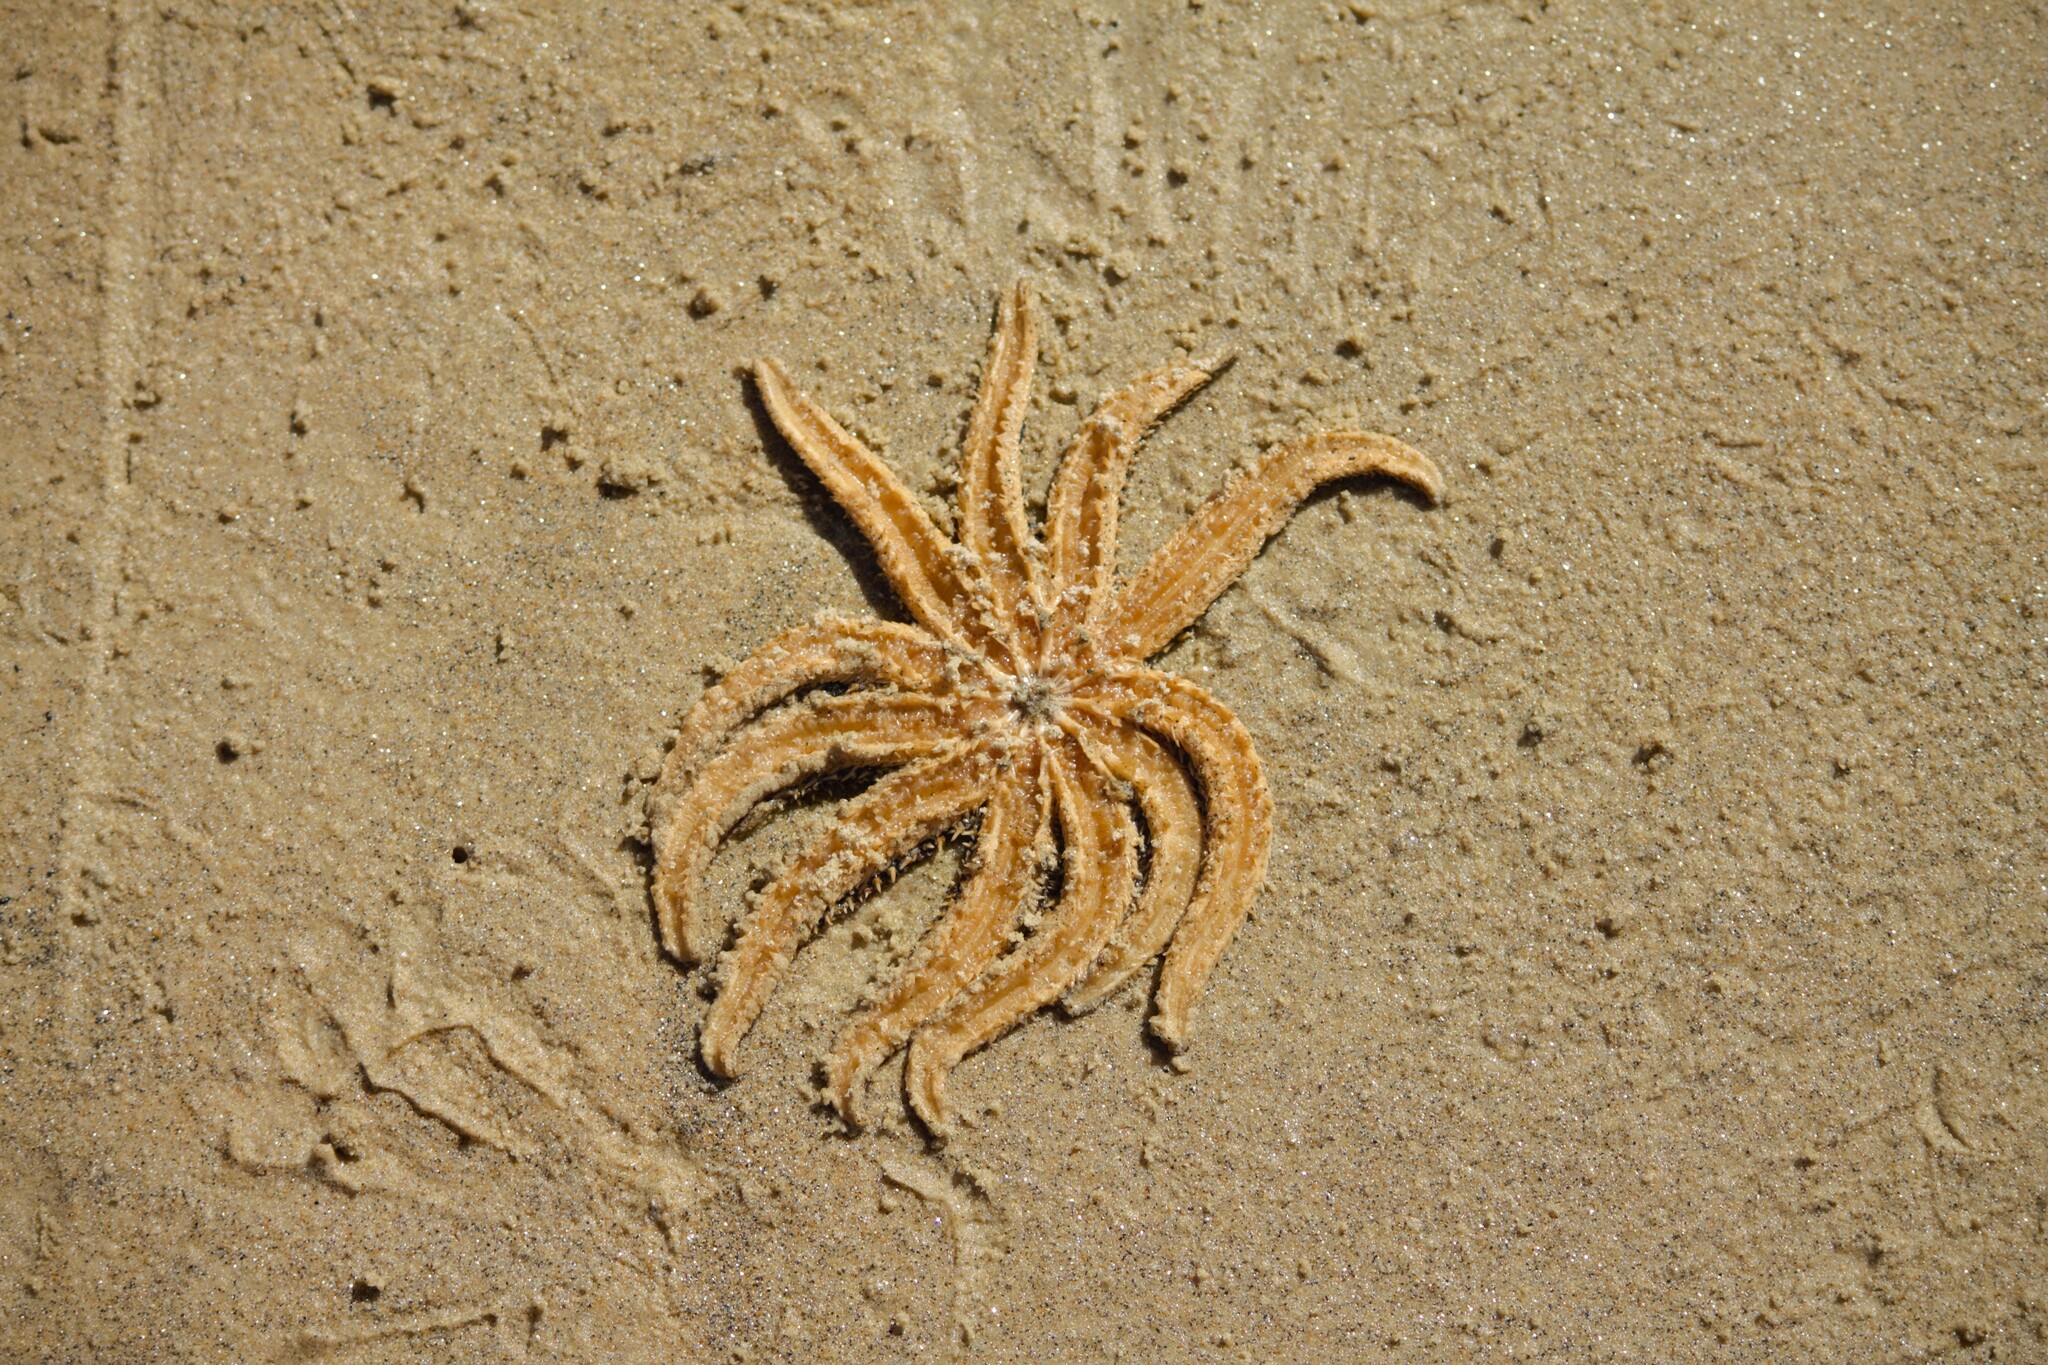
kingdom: Animalia
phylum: Echinodermata
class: Asteroidea
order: Forcipulatida
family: Asteriidae
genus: Coscinasterias
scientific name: Coscinasterias muricata
